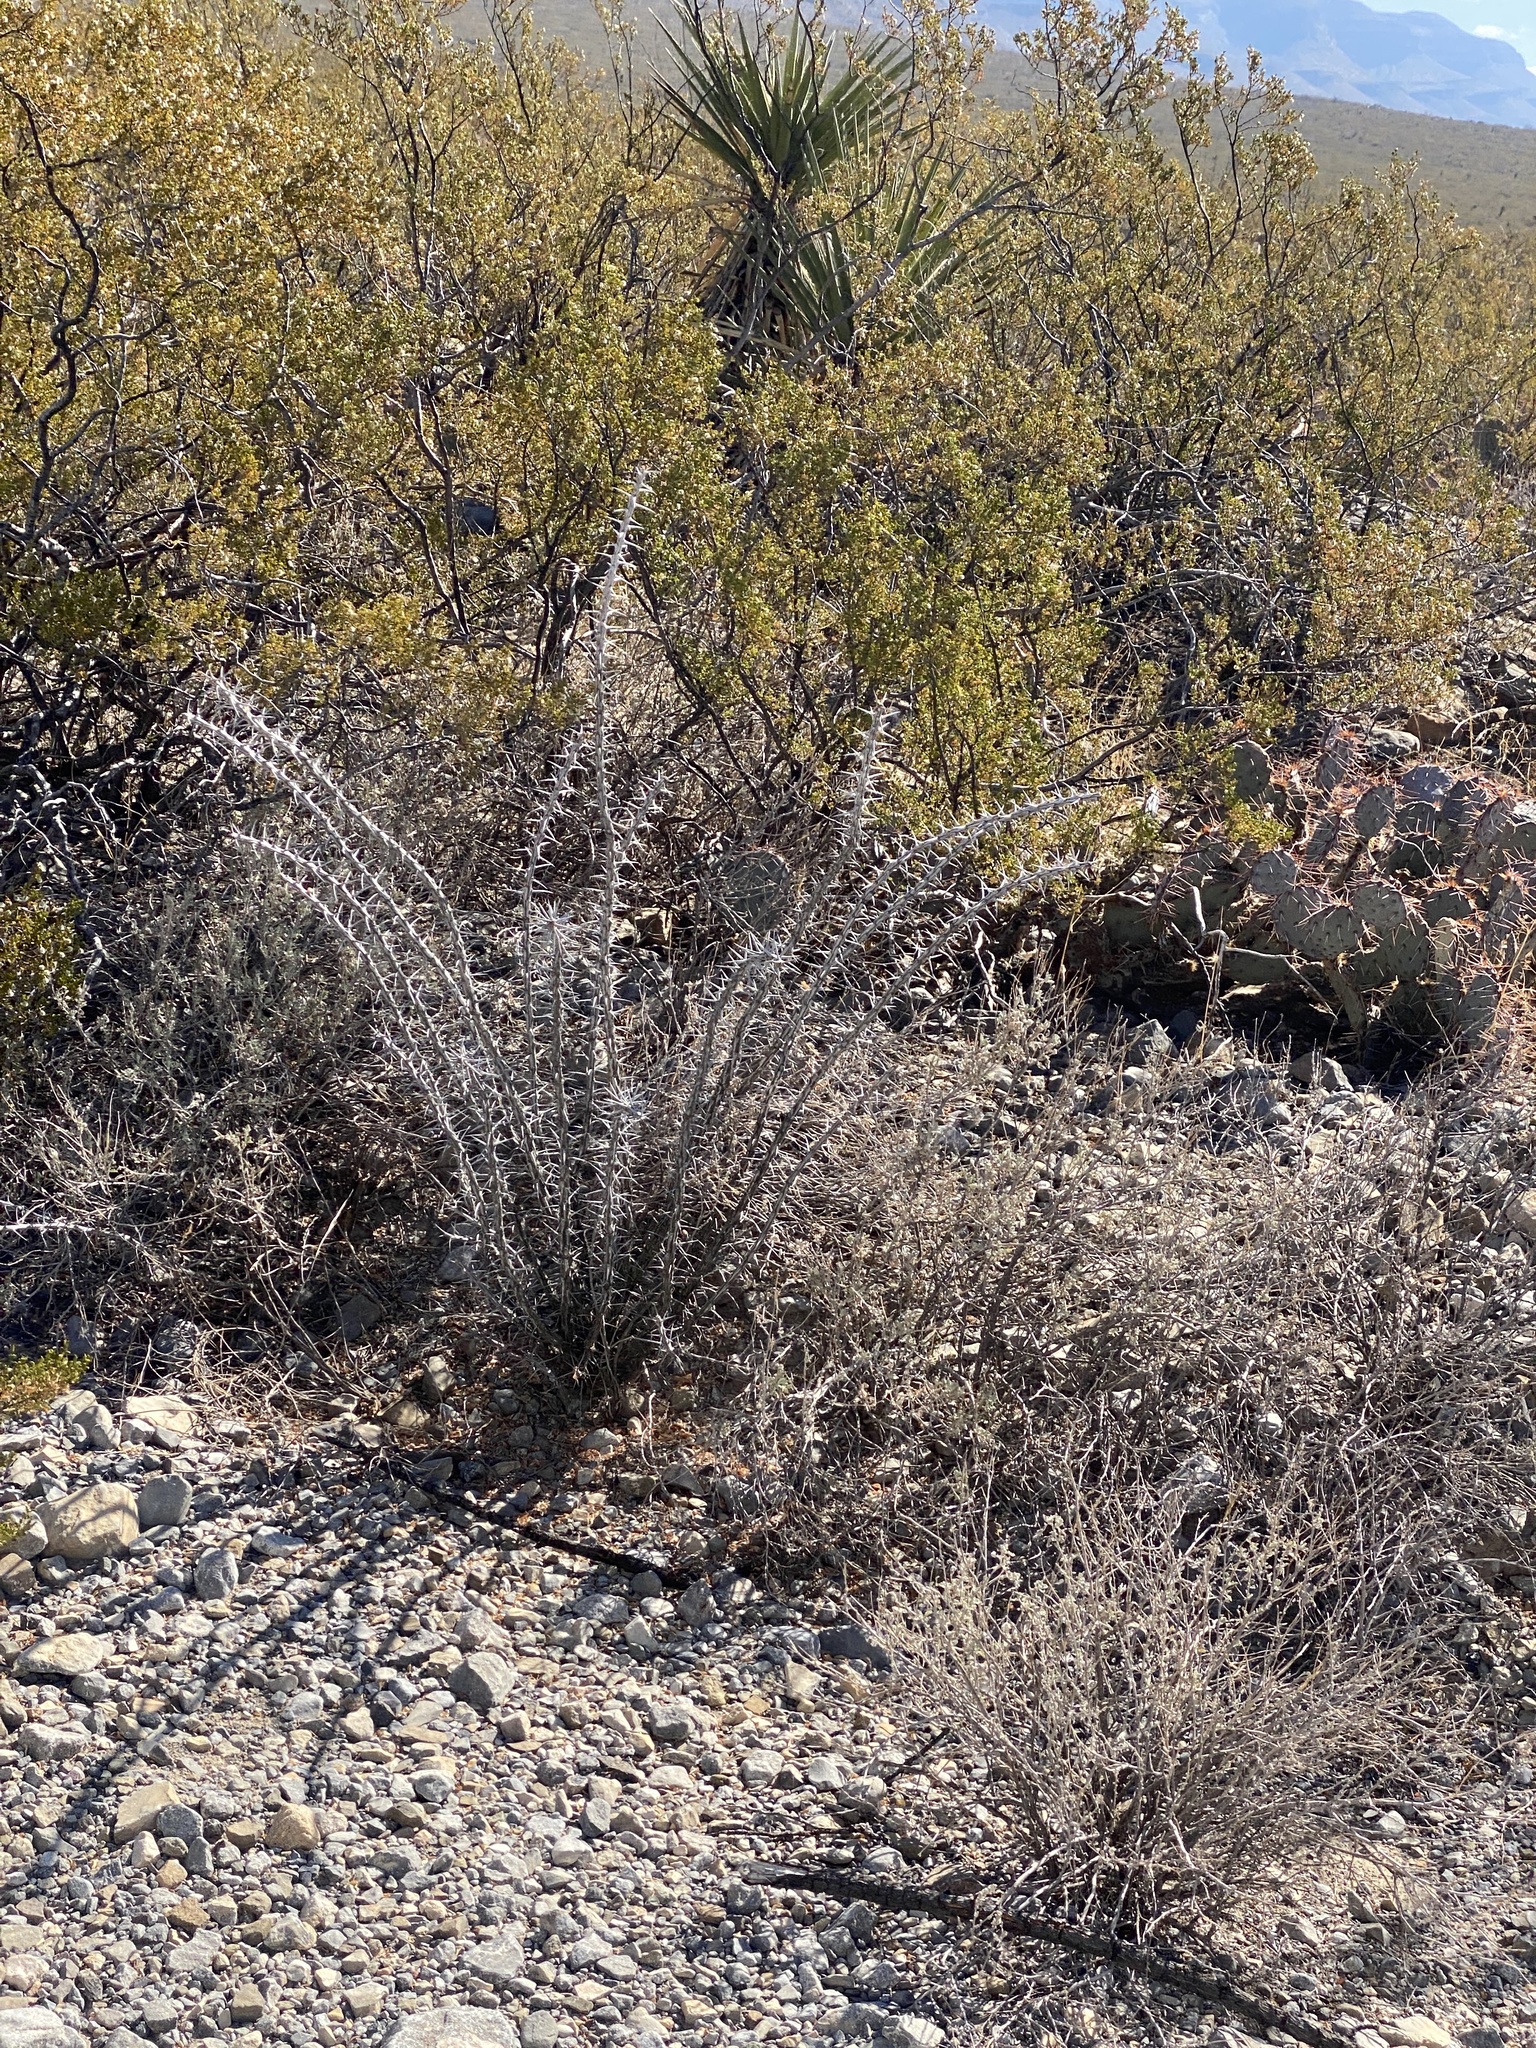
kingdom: Plantae
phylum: Tracheophyta
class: Magnoliopsida
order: Ericales
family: Fouquieriaceae
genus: Fouquieria
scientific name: Fouquieria splendens
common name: Vine-cactus
